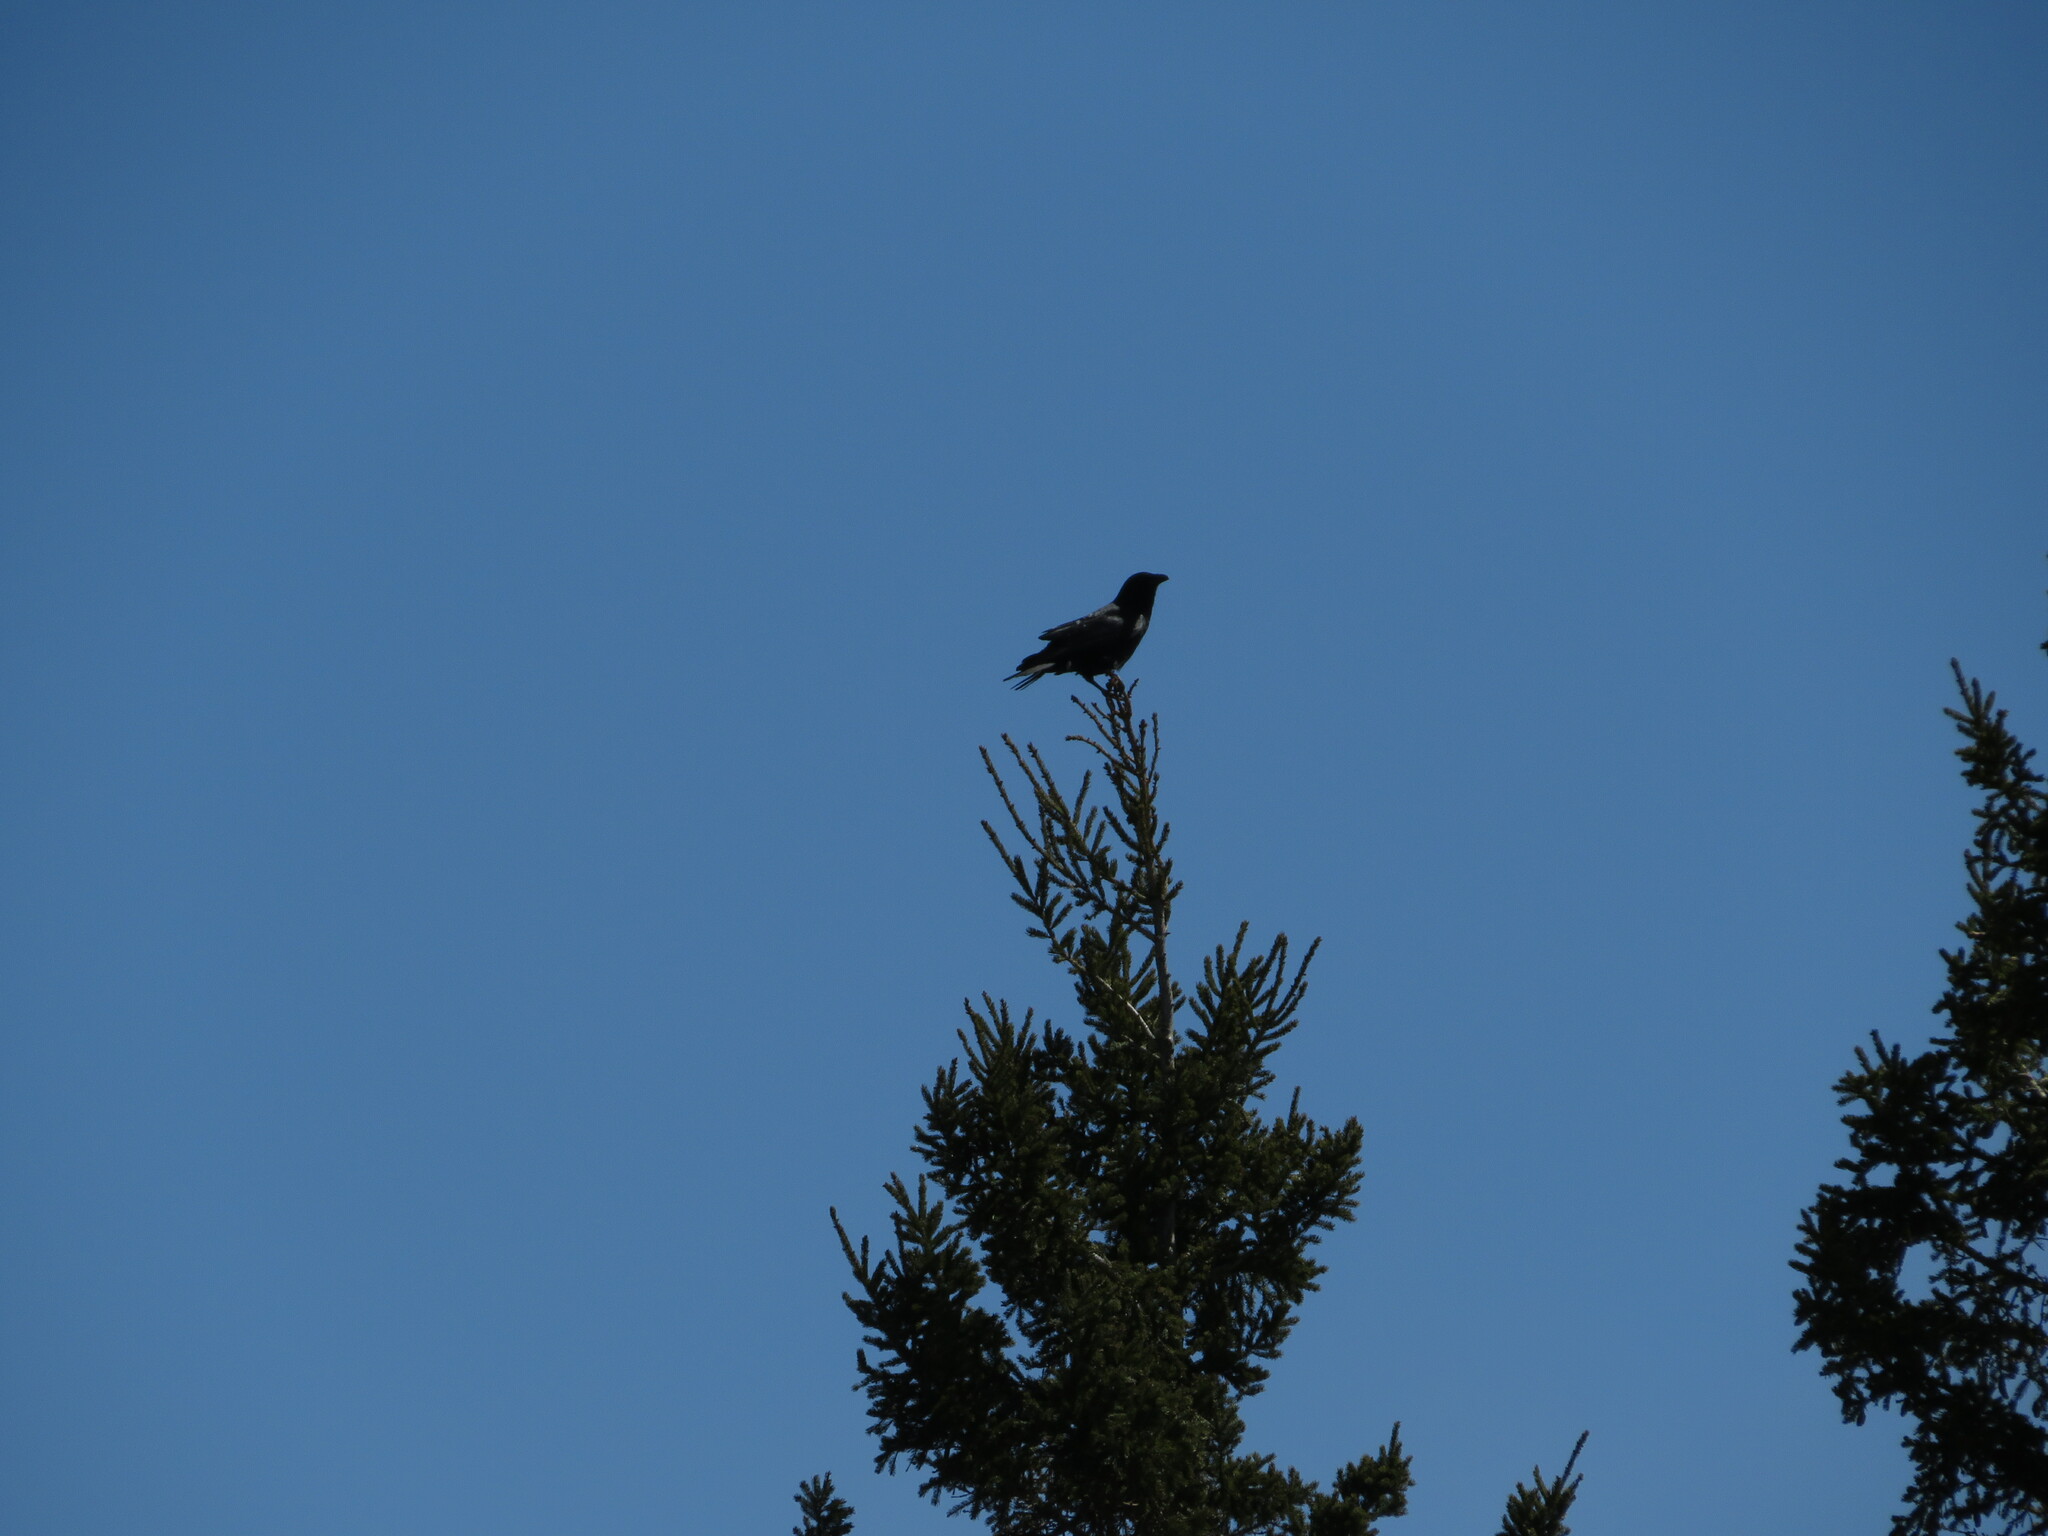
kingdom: Animalia
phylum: Chordata
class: Aves
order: Passeriformes
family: Corvidae
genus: Corvus
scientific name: Corvus brachyrhynchos
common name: American crow
